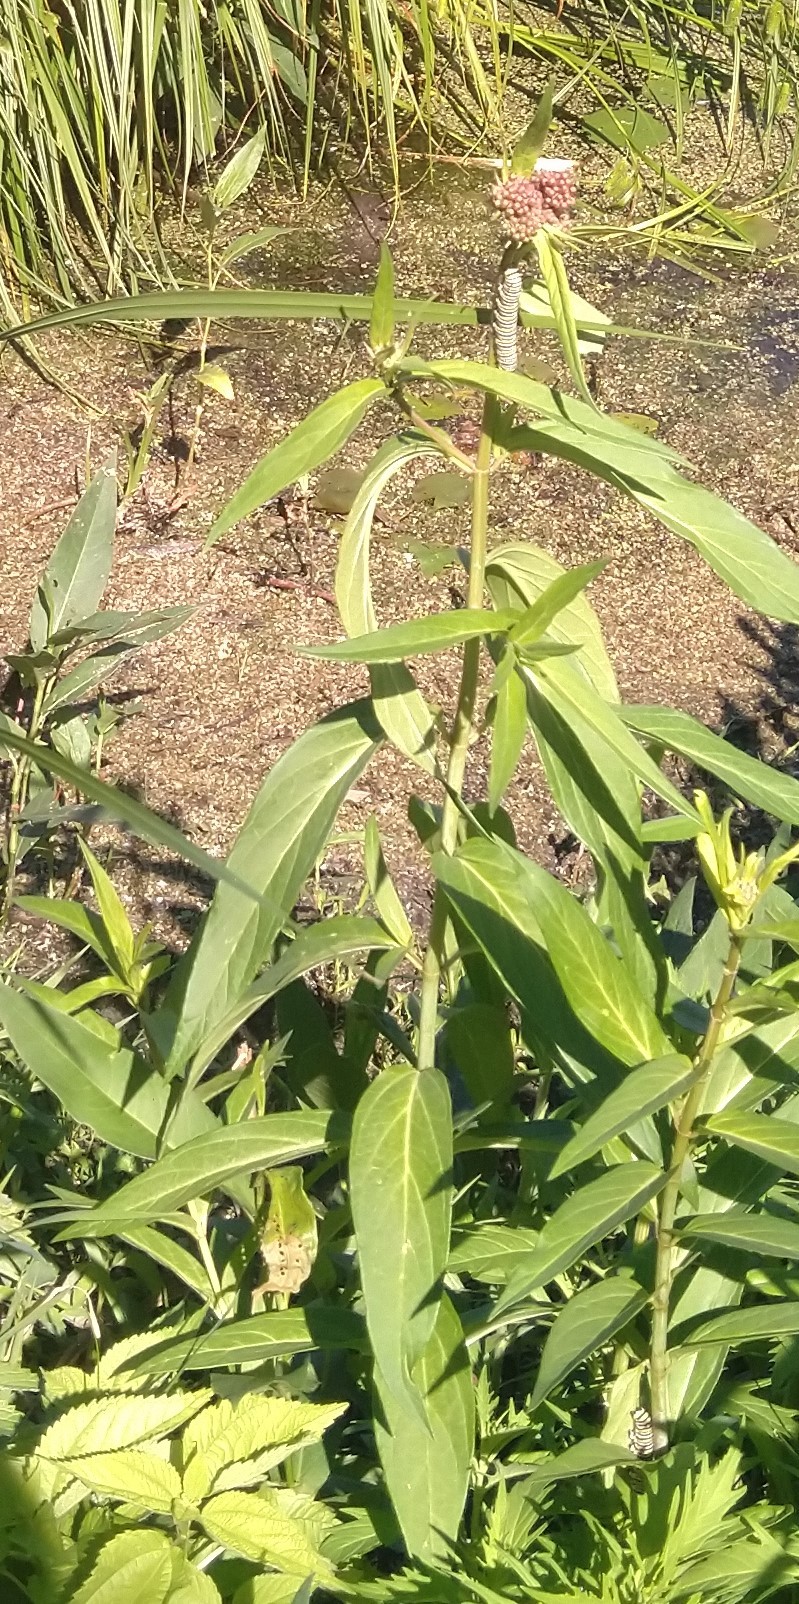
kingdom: Animalia
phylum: Arthropoda
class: Insecta
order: Lepidoptera
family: Nymphalidae
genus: Danaus
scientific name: Danaus plexippus
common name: Monarch
